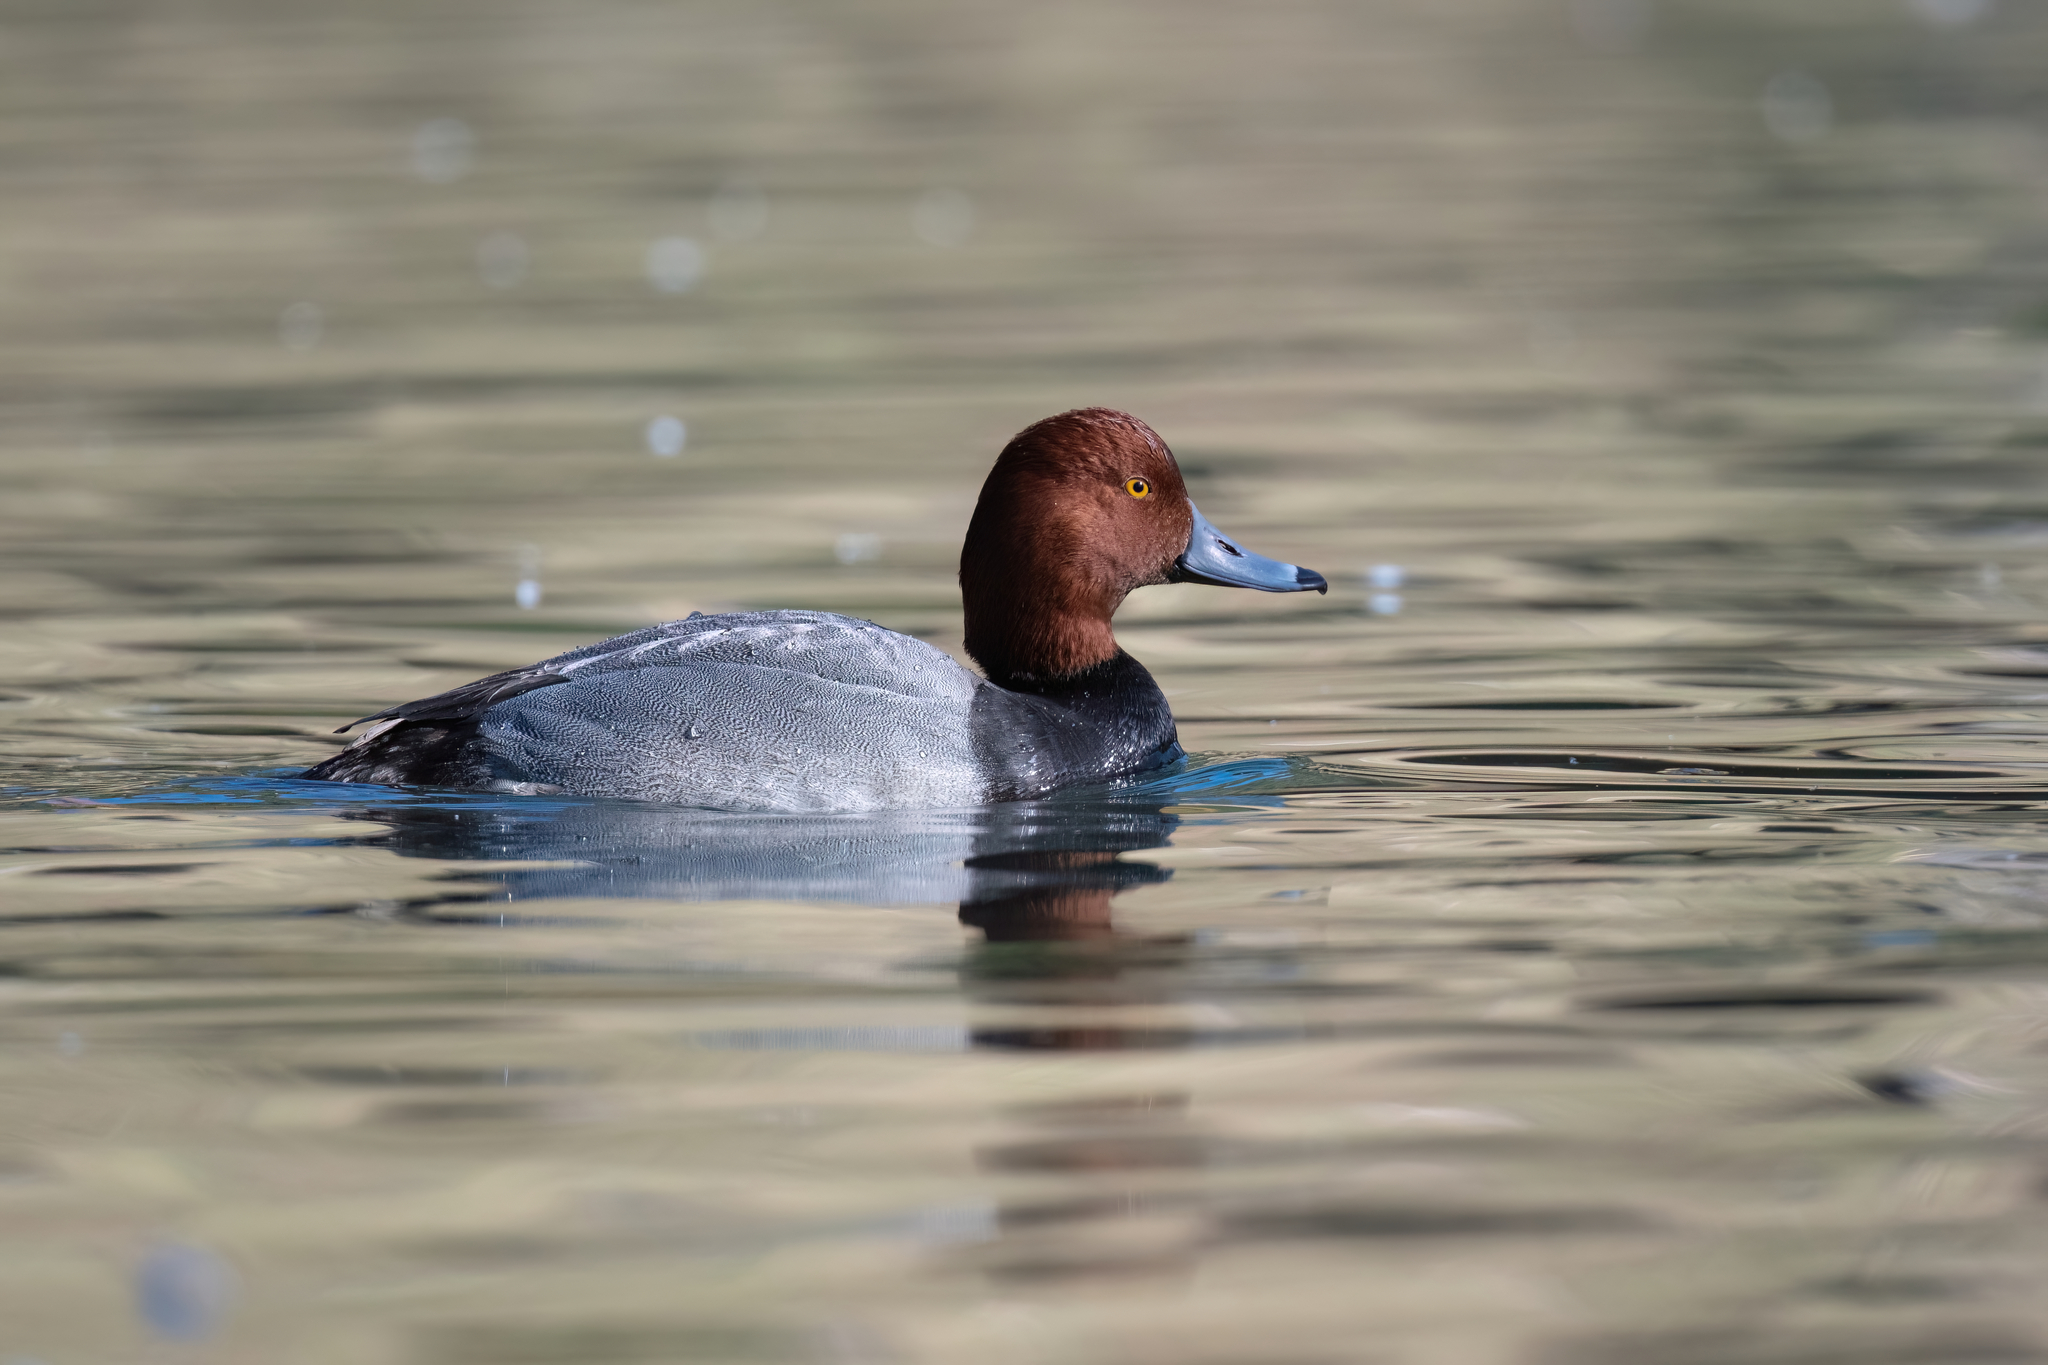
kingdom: Animalia
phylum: Chordata
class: Aves
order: Anseriformes
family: Anatidae
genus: Aythya
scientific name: Aythya americana
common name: Redhead
